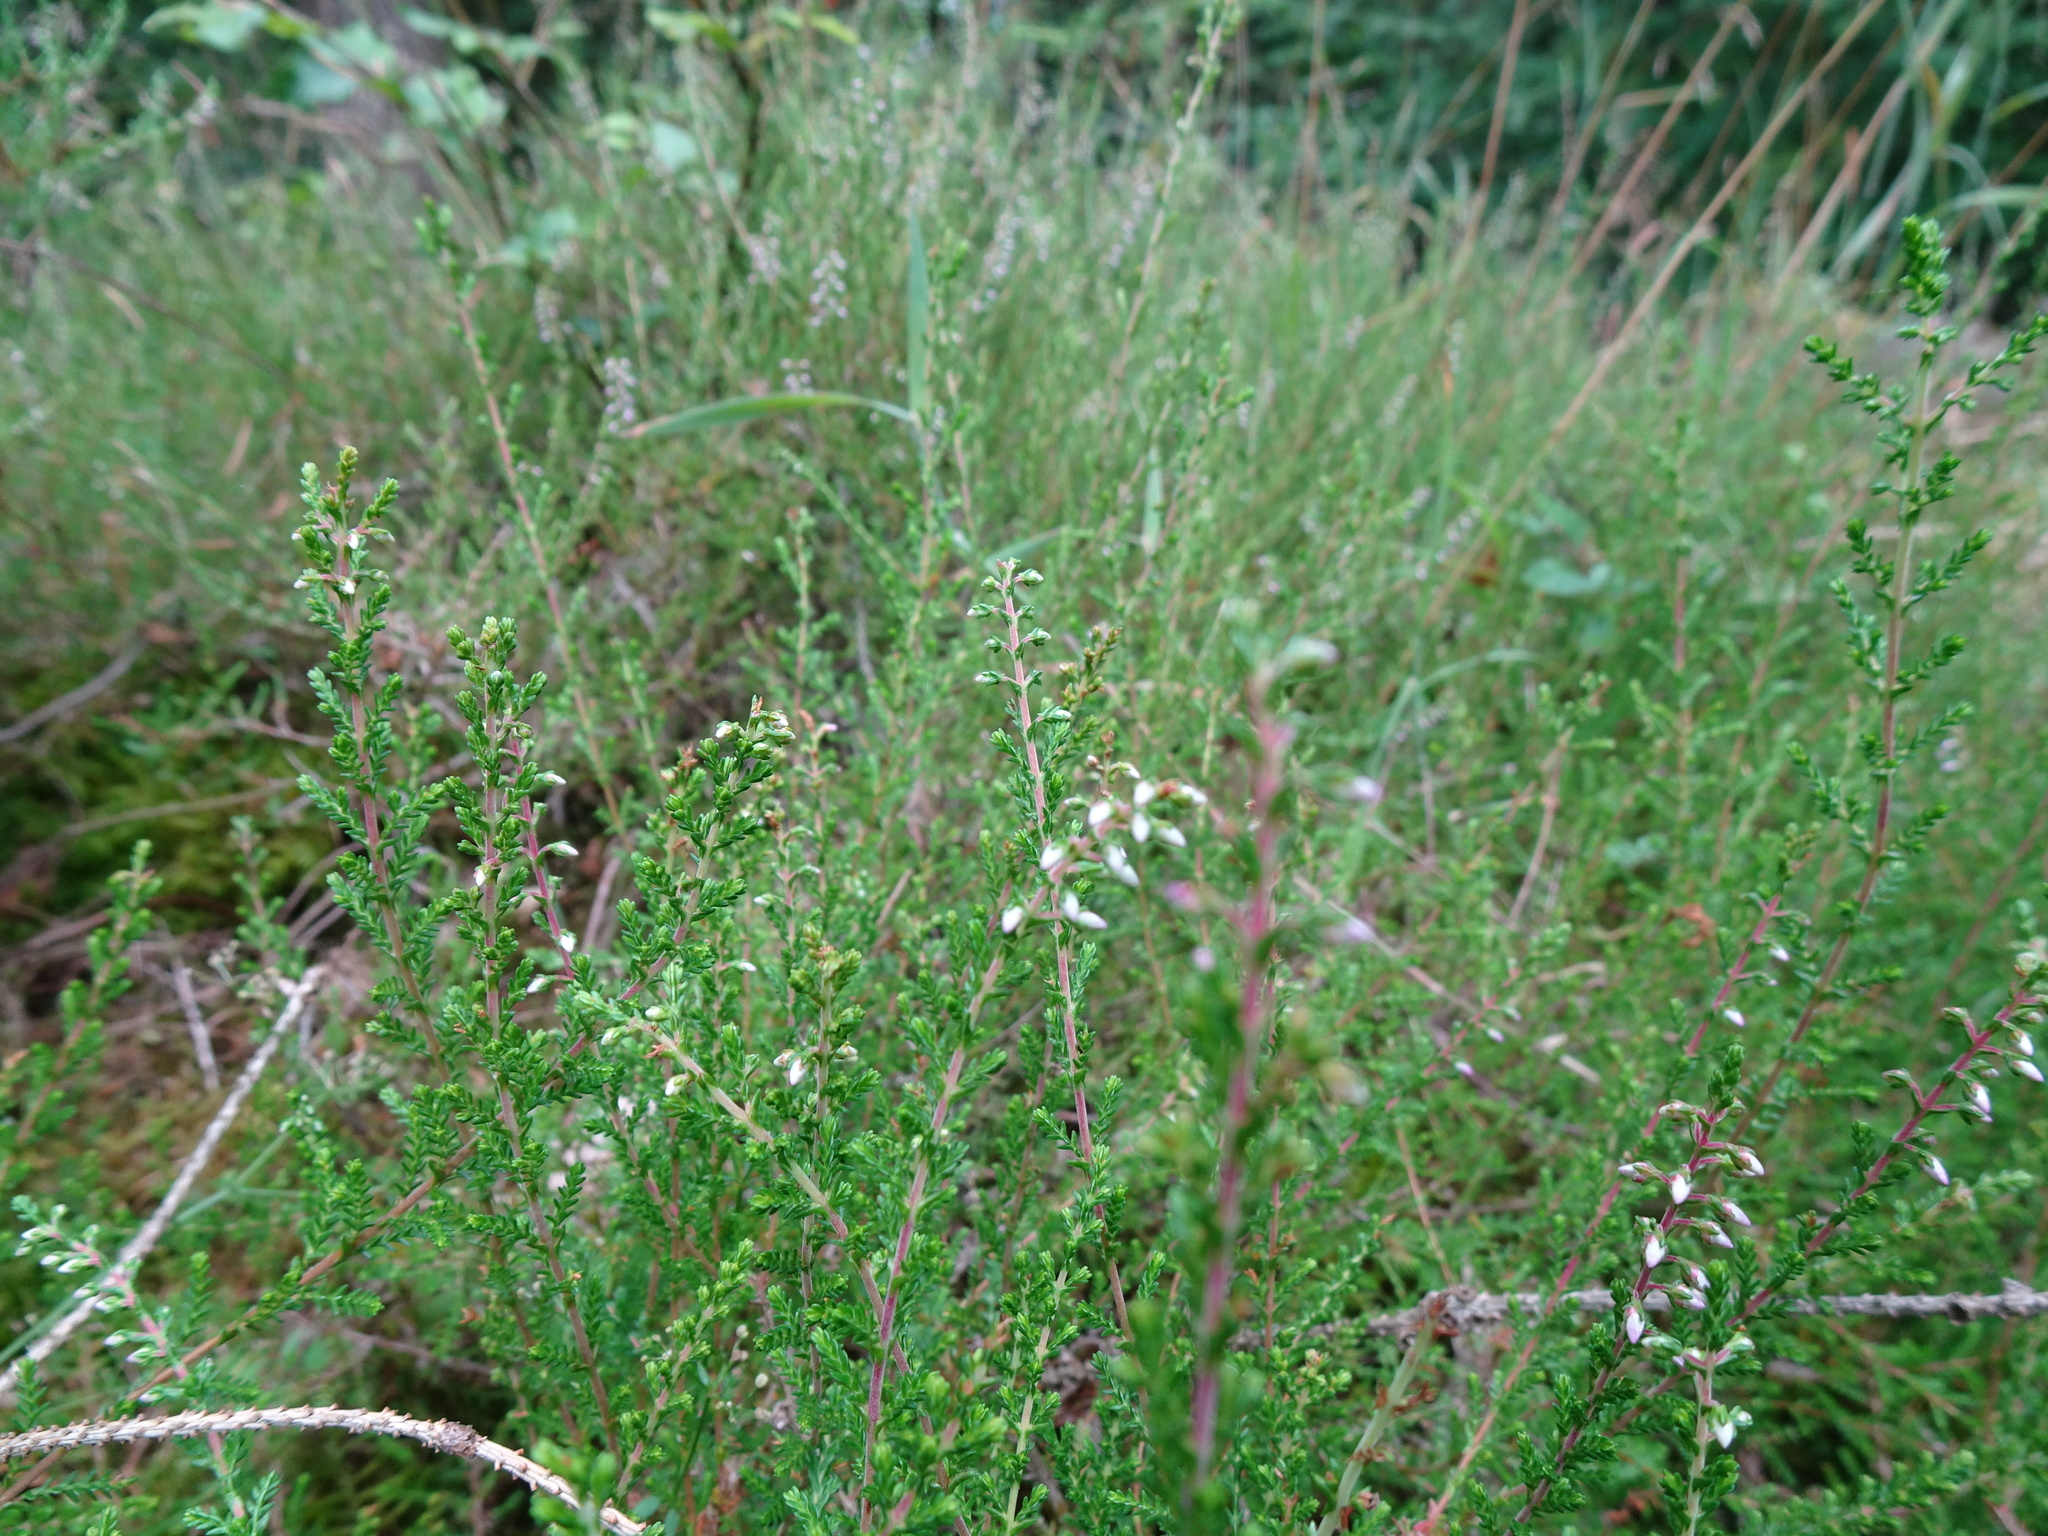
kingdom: Plantae
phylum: Tracheophyta
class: Magnoliopsida
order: Ericales
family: Ericaceae
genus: Calluna
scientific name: Calluna vulgaris
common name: Heather
